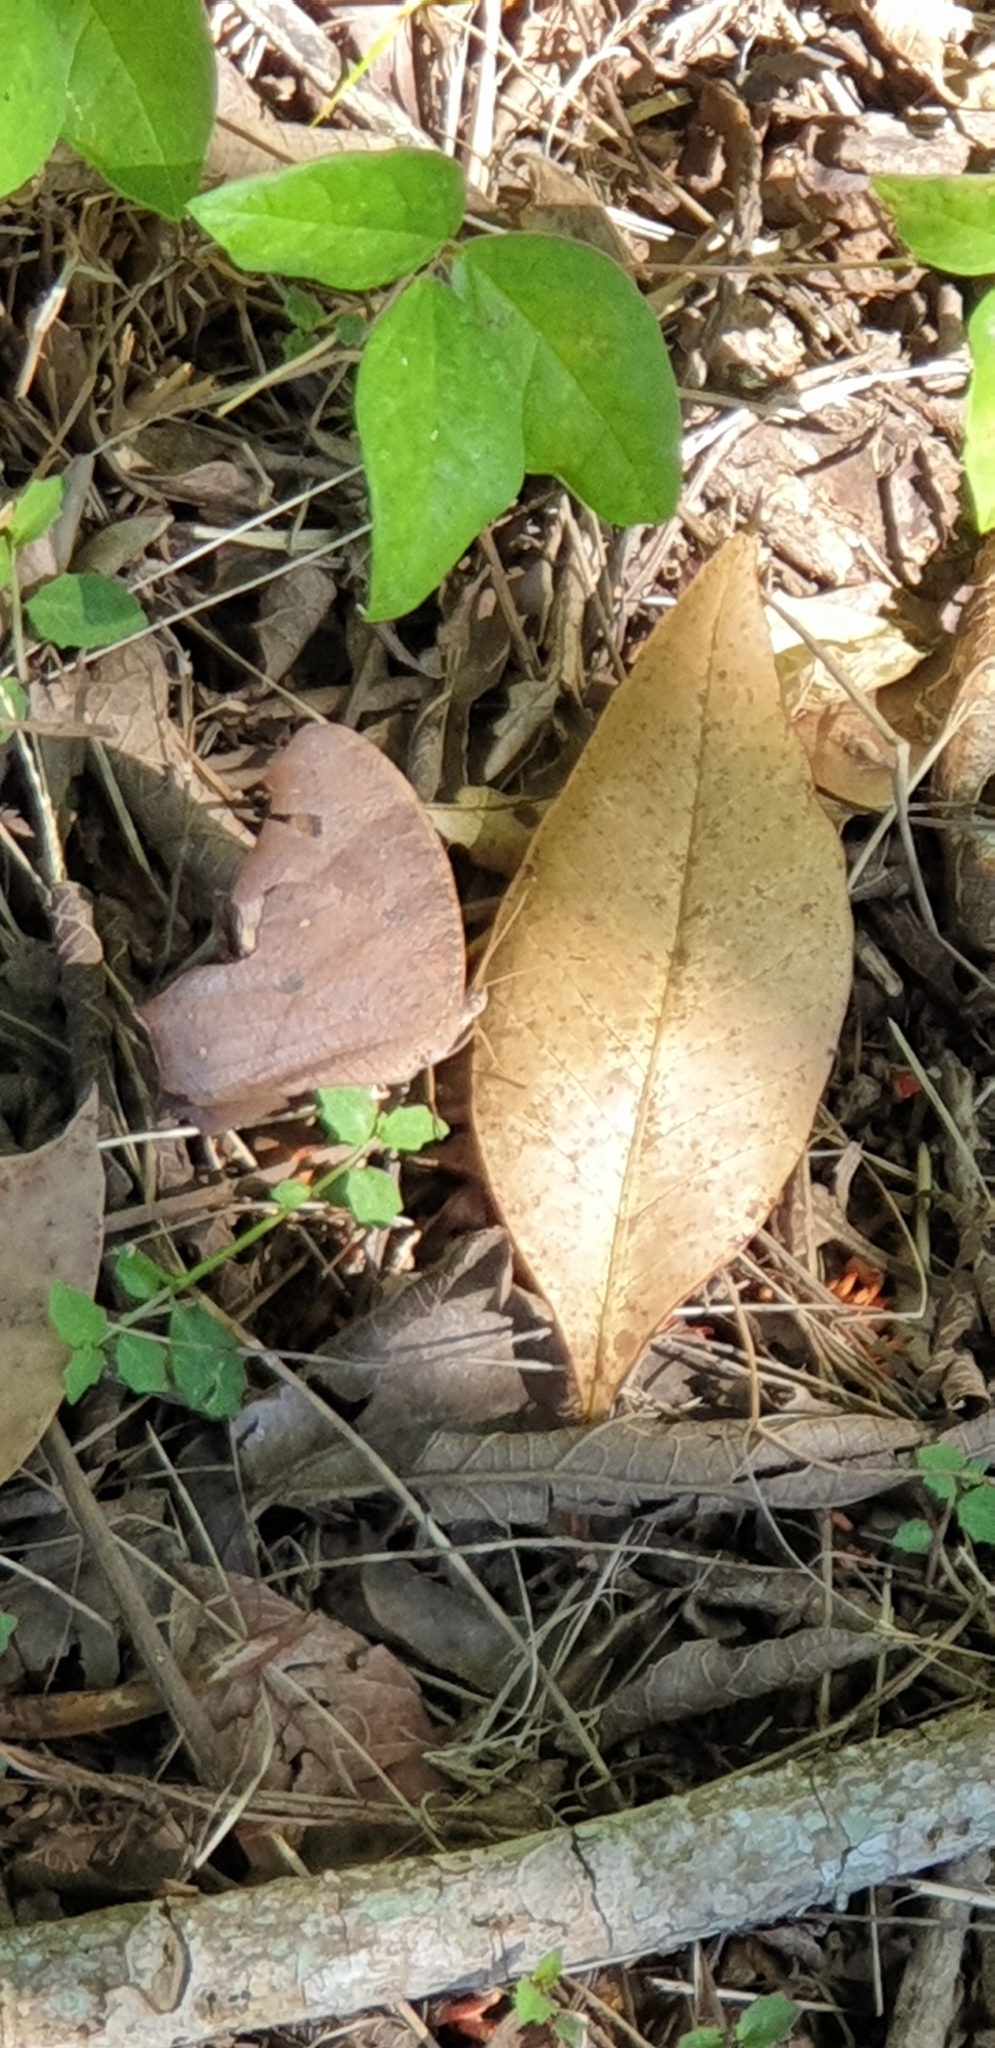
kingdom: Animalia
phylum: Arthropoda
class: Insecta
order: Lepidoptera
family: Nymphalidae
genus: Melanitis
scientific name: Melanitis leda
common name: Twilight brown
